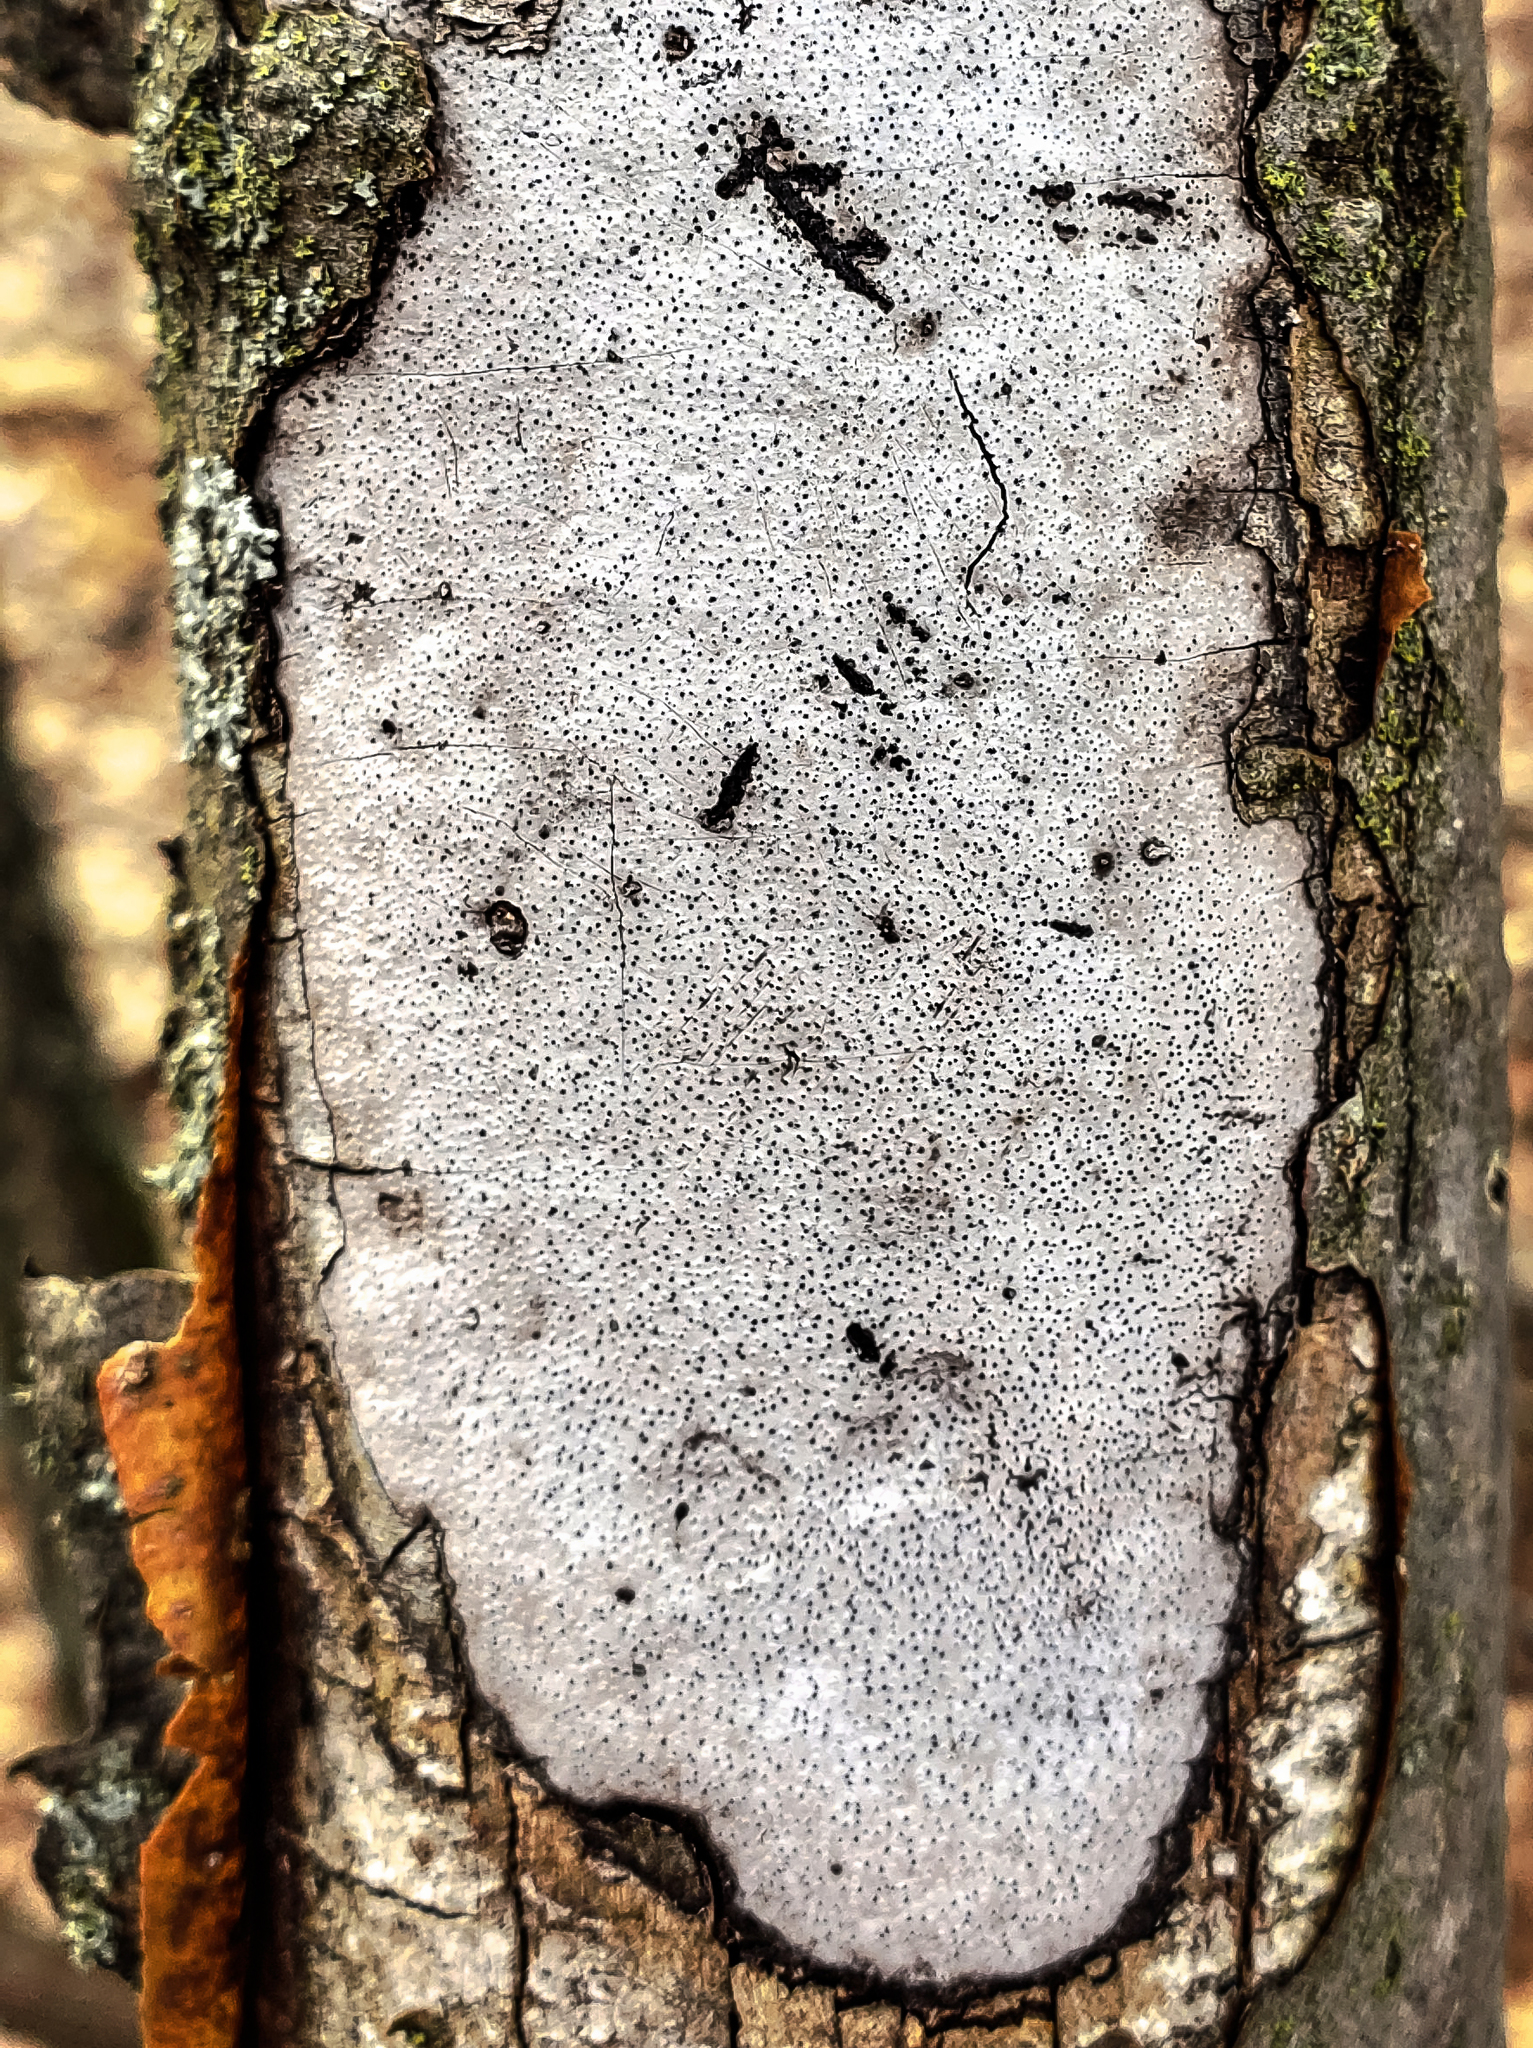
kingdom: Fungi
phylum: Ascomycota
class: Sordariomycetes
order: Xylariales
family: Graphostromataceae
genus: Biscogniauxia
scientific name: Biscogniauxia atropunctata
